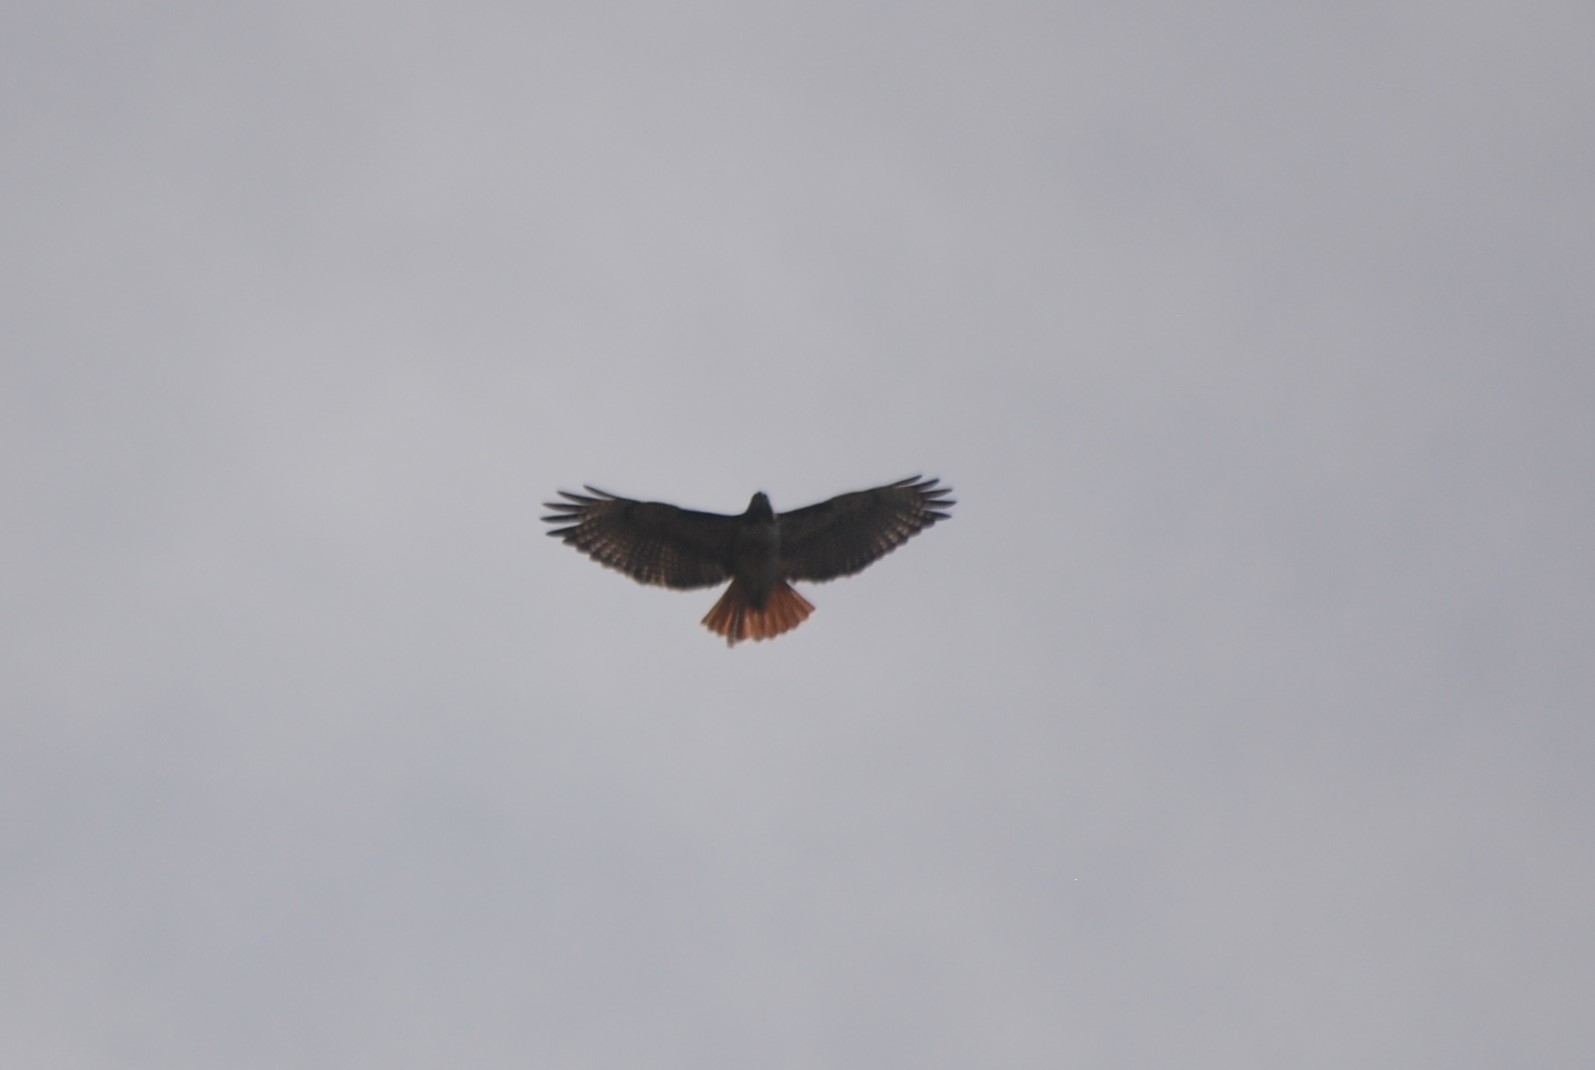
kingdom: Animalia
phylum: Chordata
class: Aves
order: Accipitriformes
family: Accipitridae
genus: Buteo
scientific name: Buteo jamaicensis
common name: Red-tailed hawk
